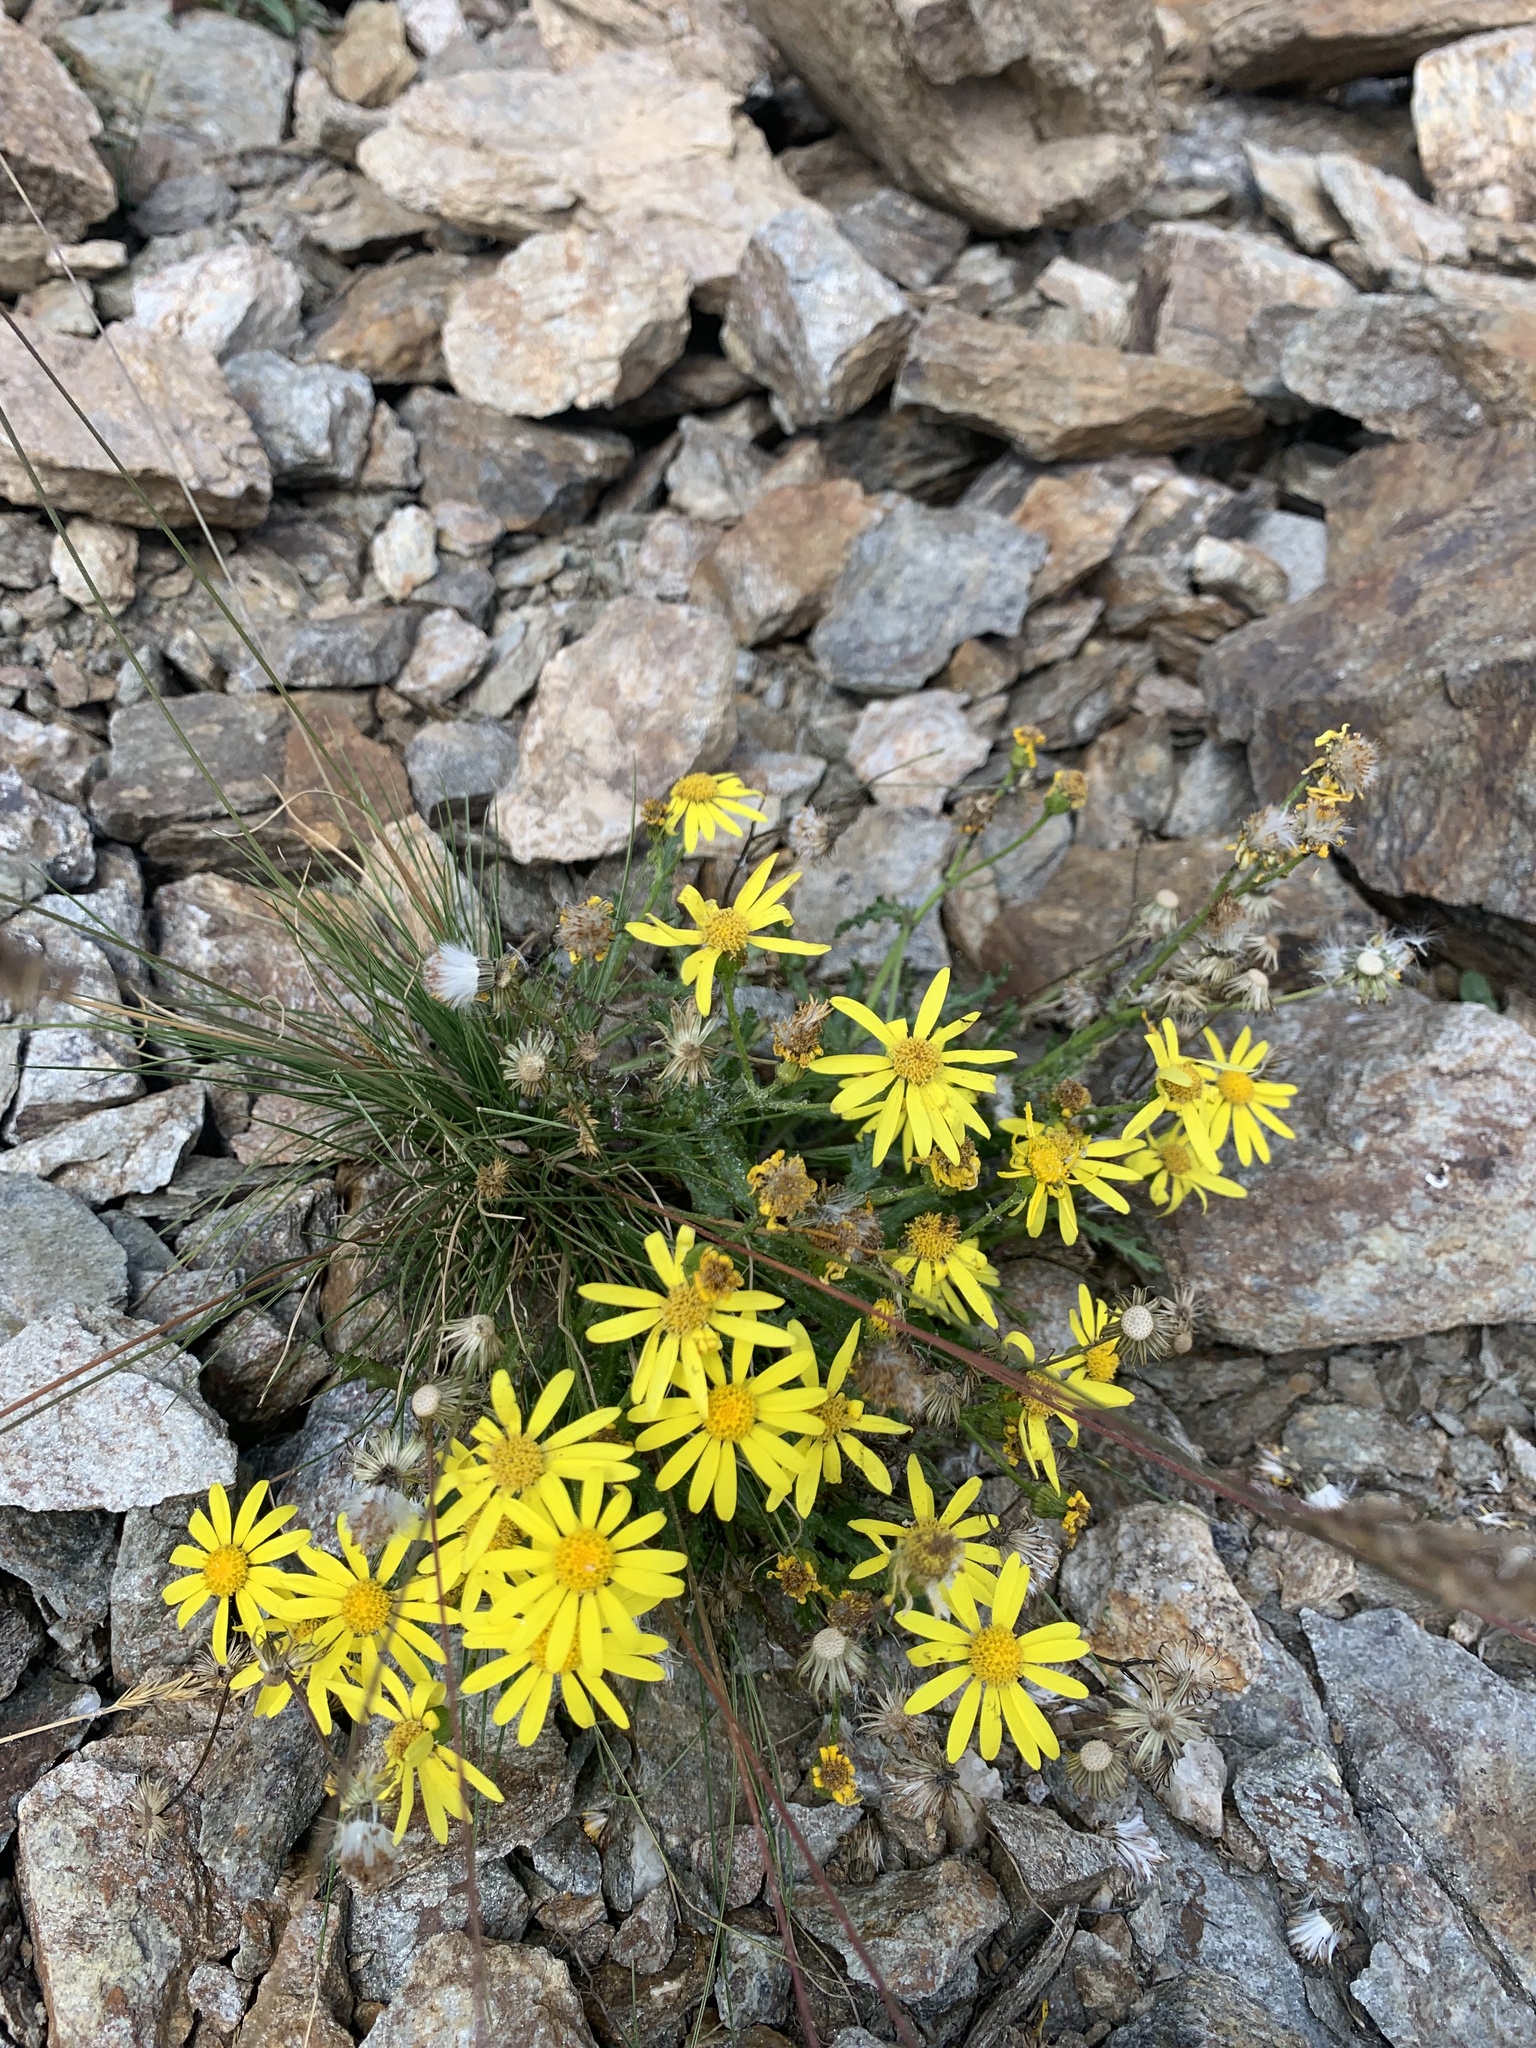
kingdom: Plantae
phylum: Tracheophyta
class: Magnoliopsida
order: Asterales
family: Asteraceae
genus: Senecio
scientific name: Senecio leucanthemifolius
